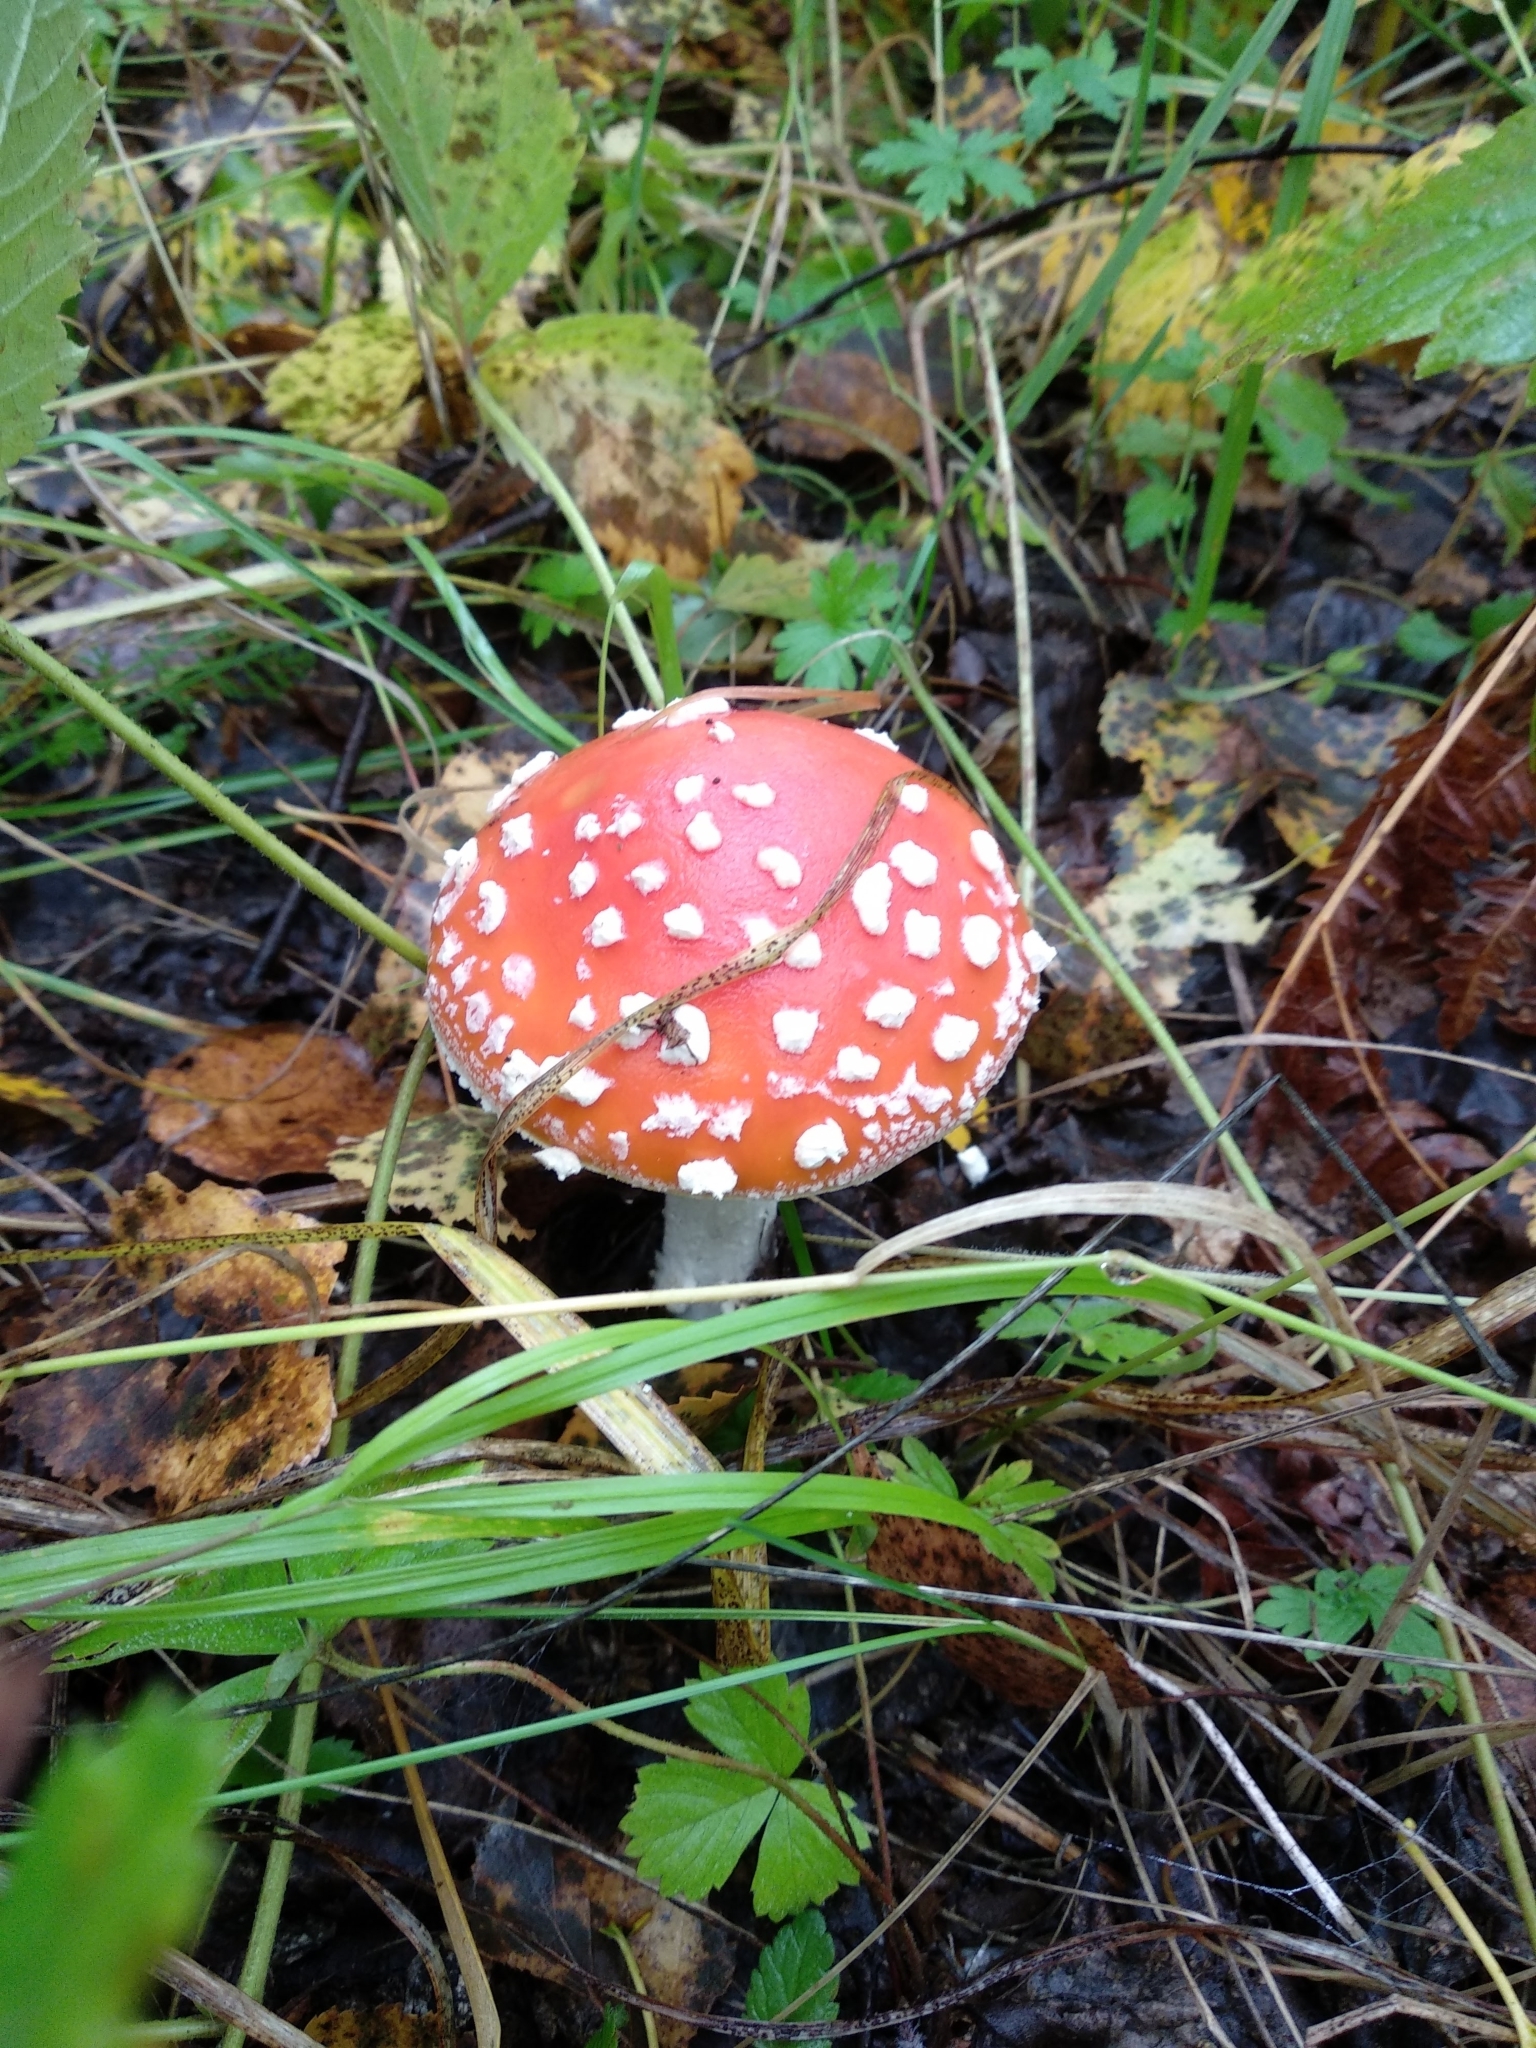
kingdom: Fungi
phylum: Basidiomycota
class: Agaricomycetes
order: Agaricales
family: Amanitaceae
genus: Amanita
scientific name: Amanita muscaria
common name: Fly agaric
